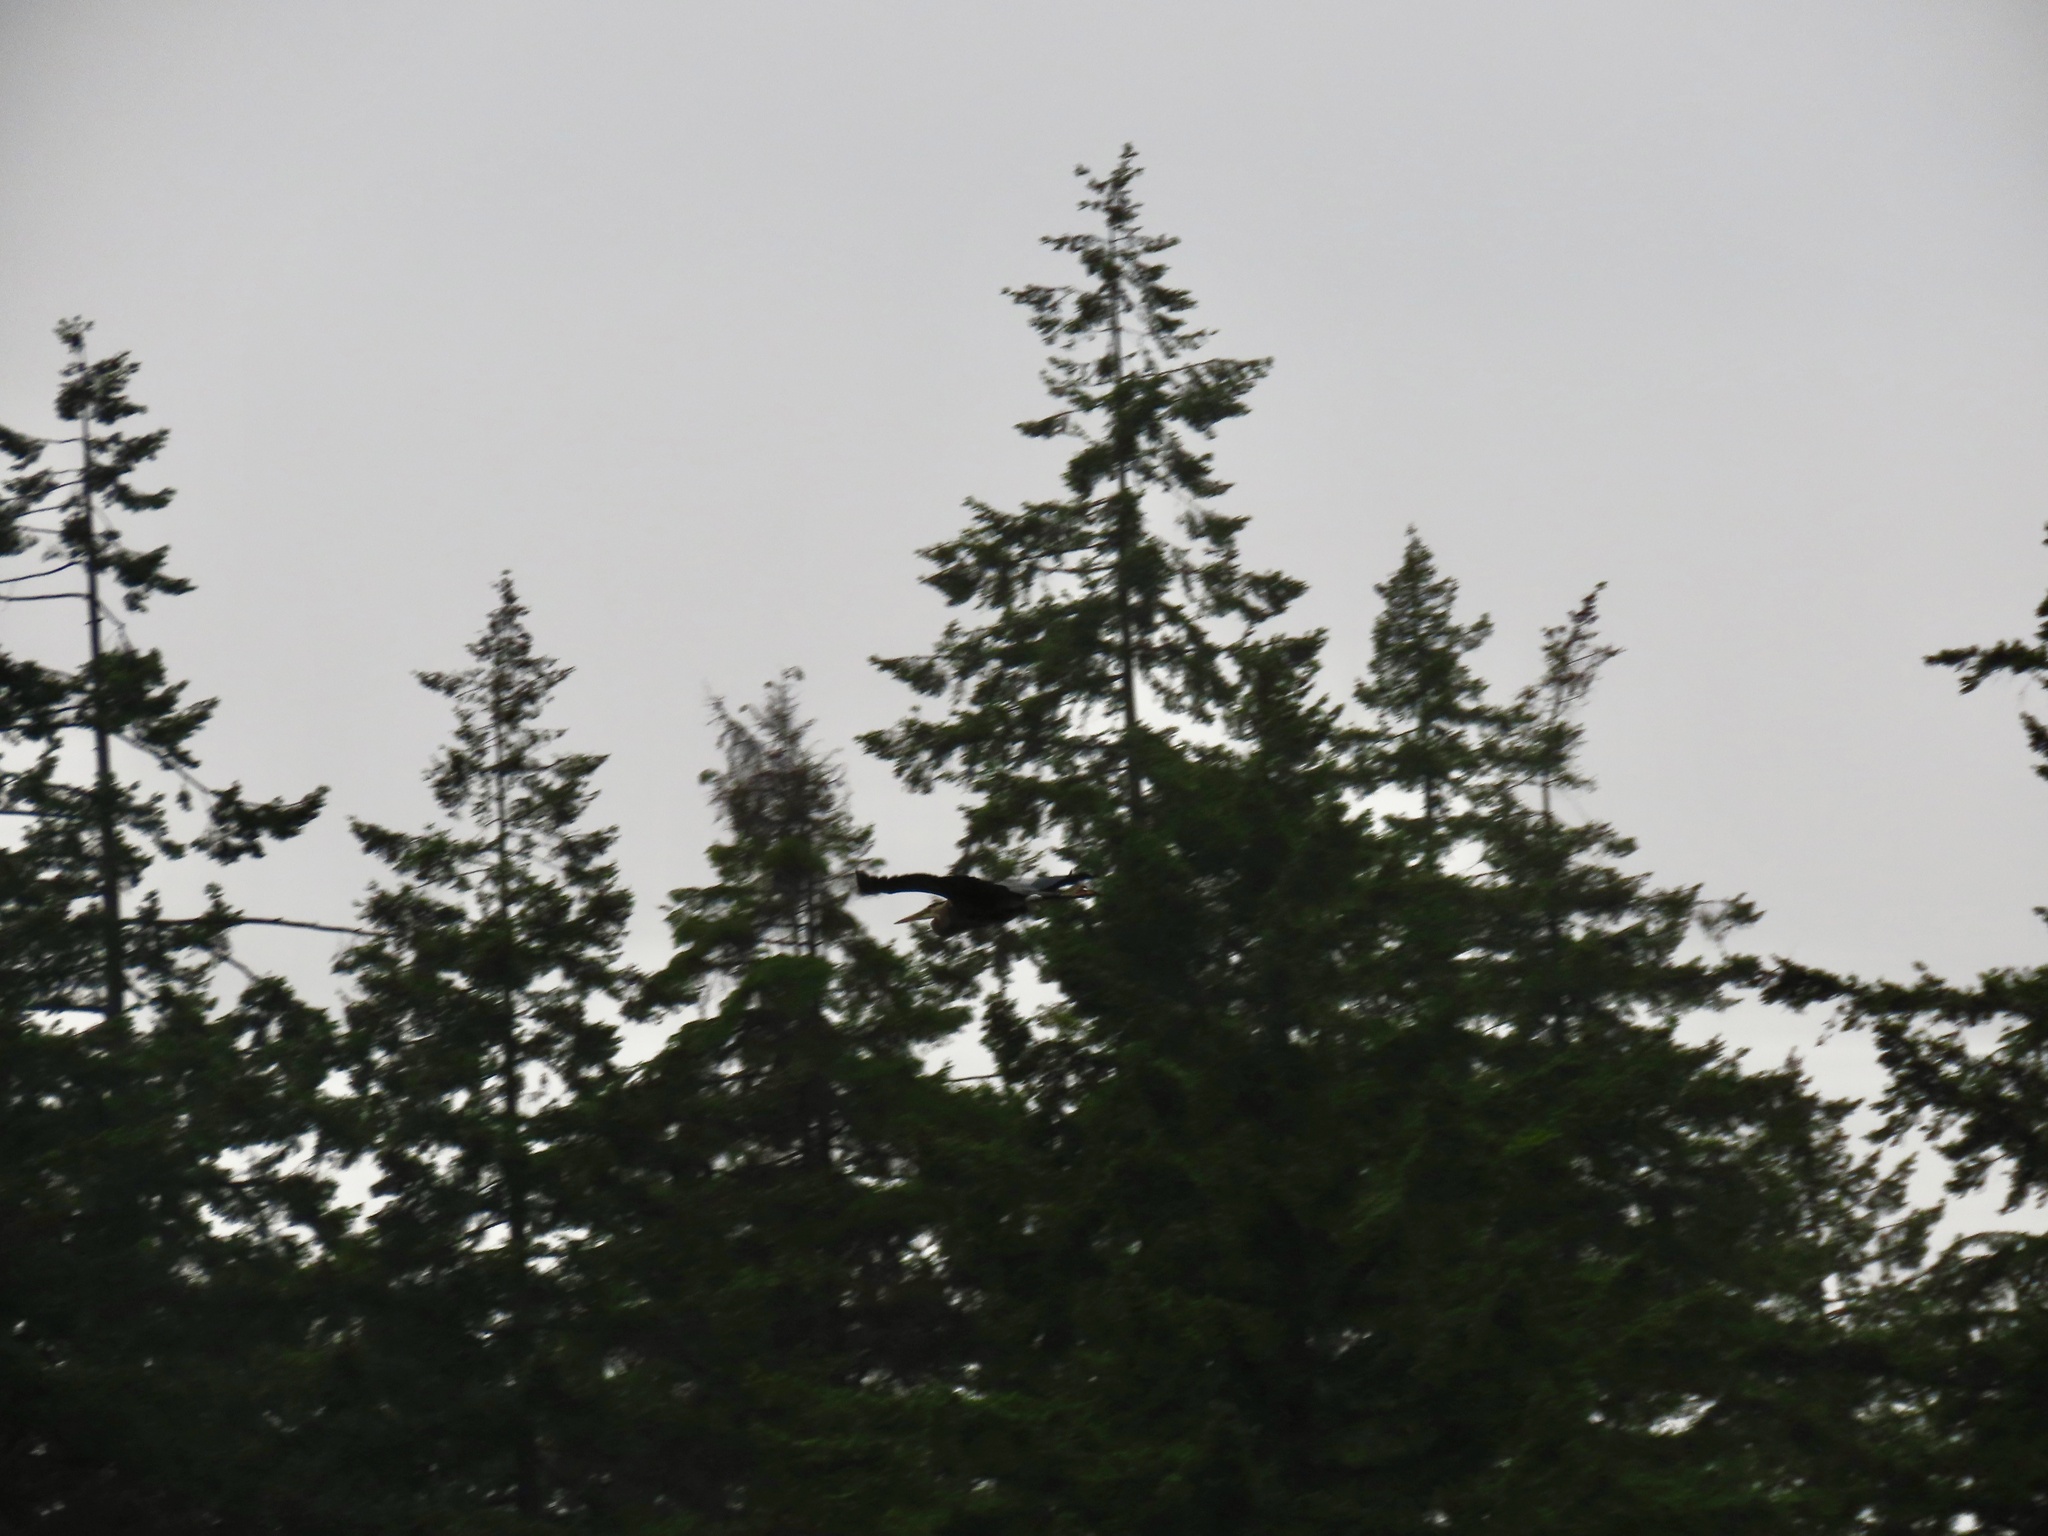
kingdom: Animalia
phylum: Chordata
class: Aves
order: Pelecaniformes
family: Ardeidae
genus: Ardea
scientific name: Ardea herodias
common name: Great blue heron
